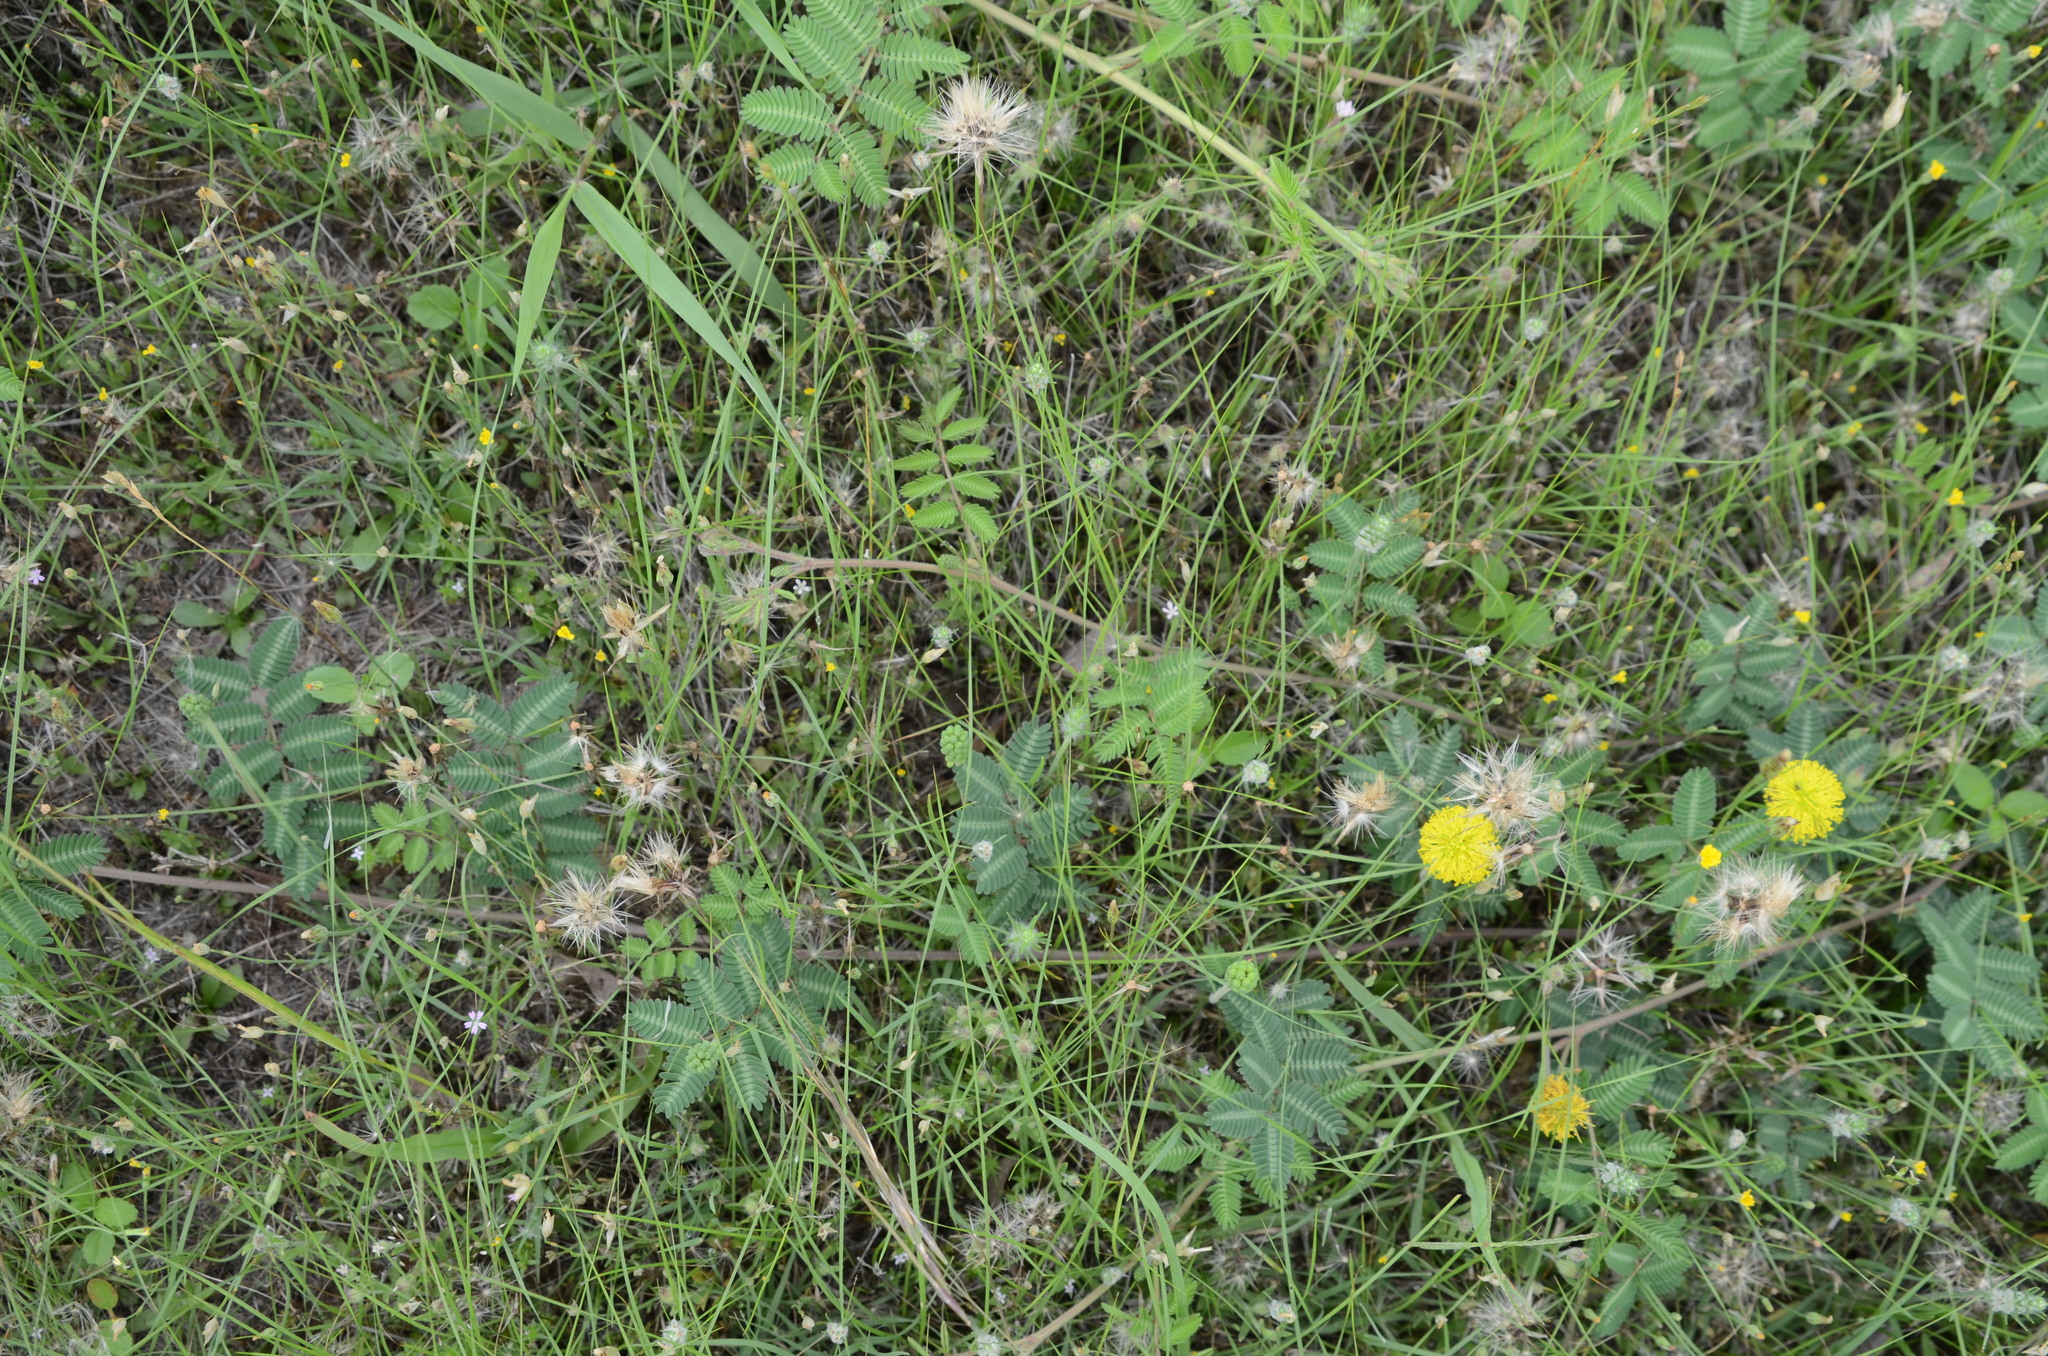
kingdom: Plantae
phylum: Tracheophyta
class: Magnoliopsida
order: Fabales
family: Fabaceae
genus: Neptunia
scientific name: Neptunia lutea
